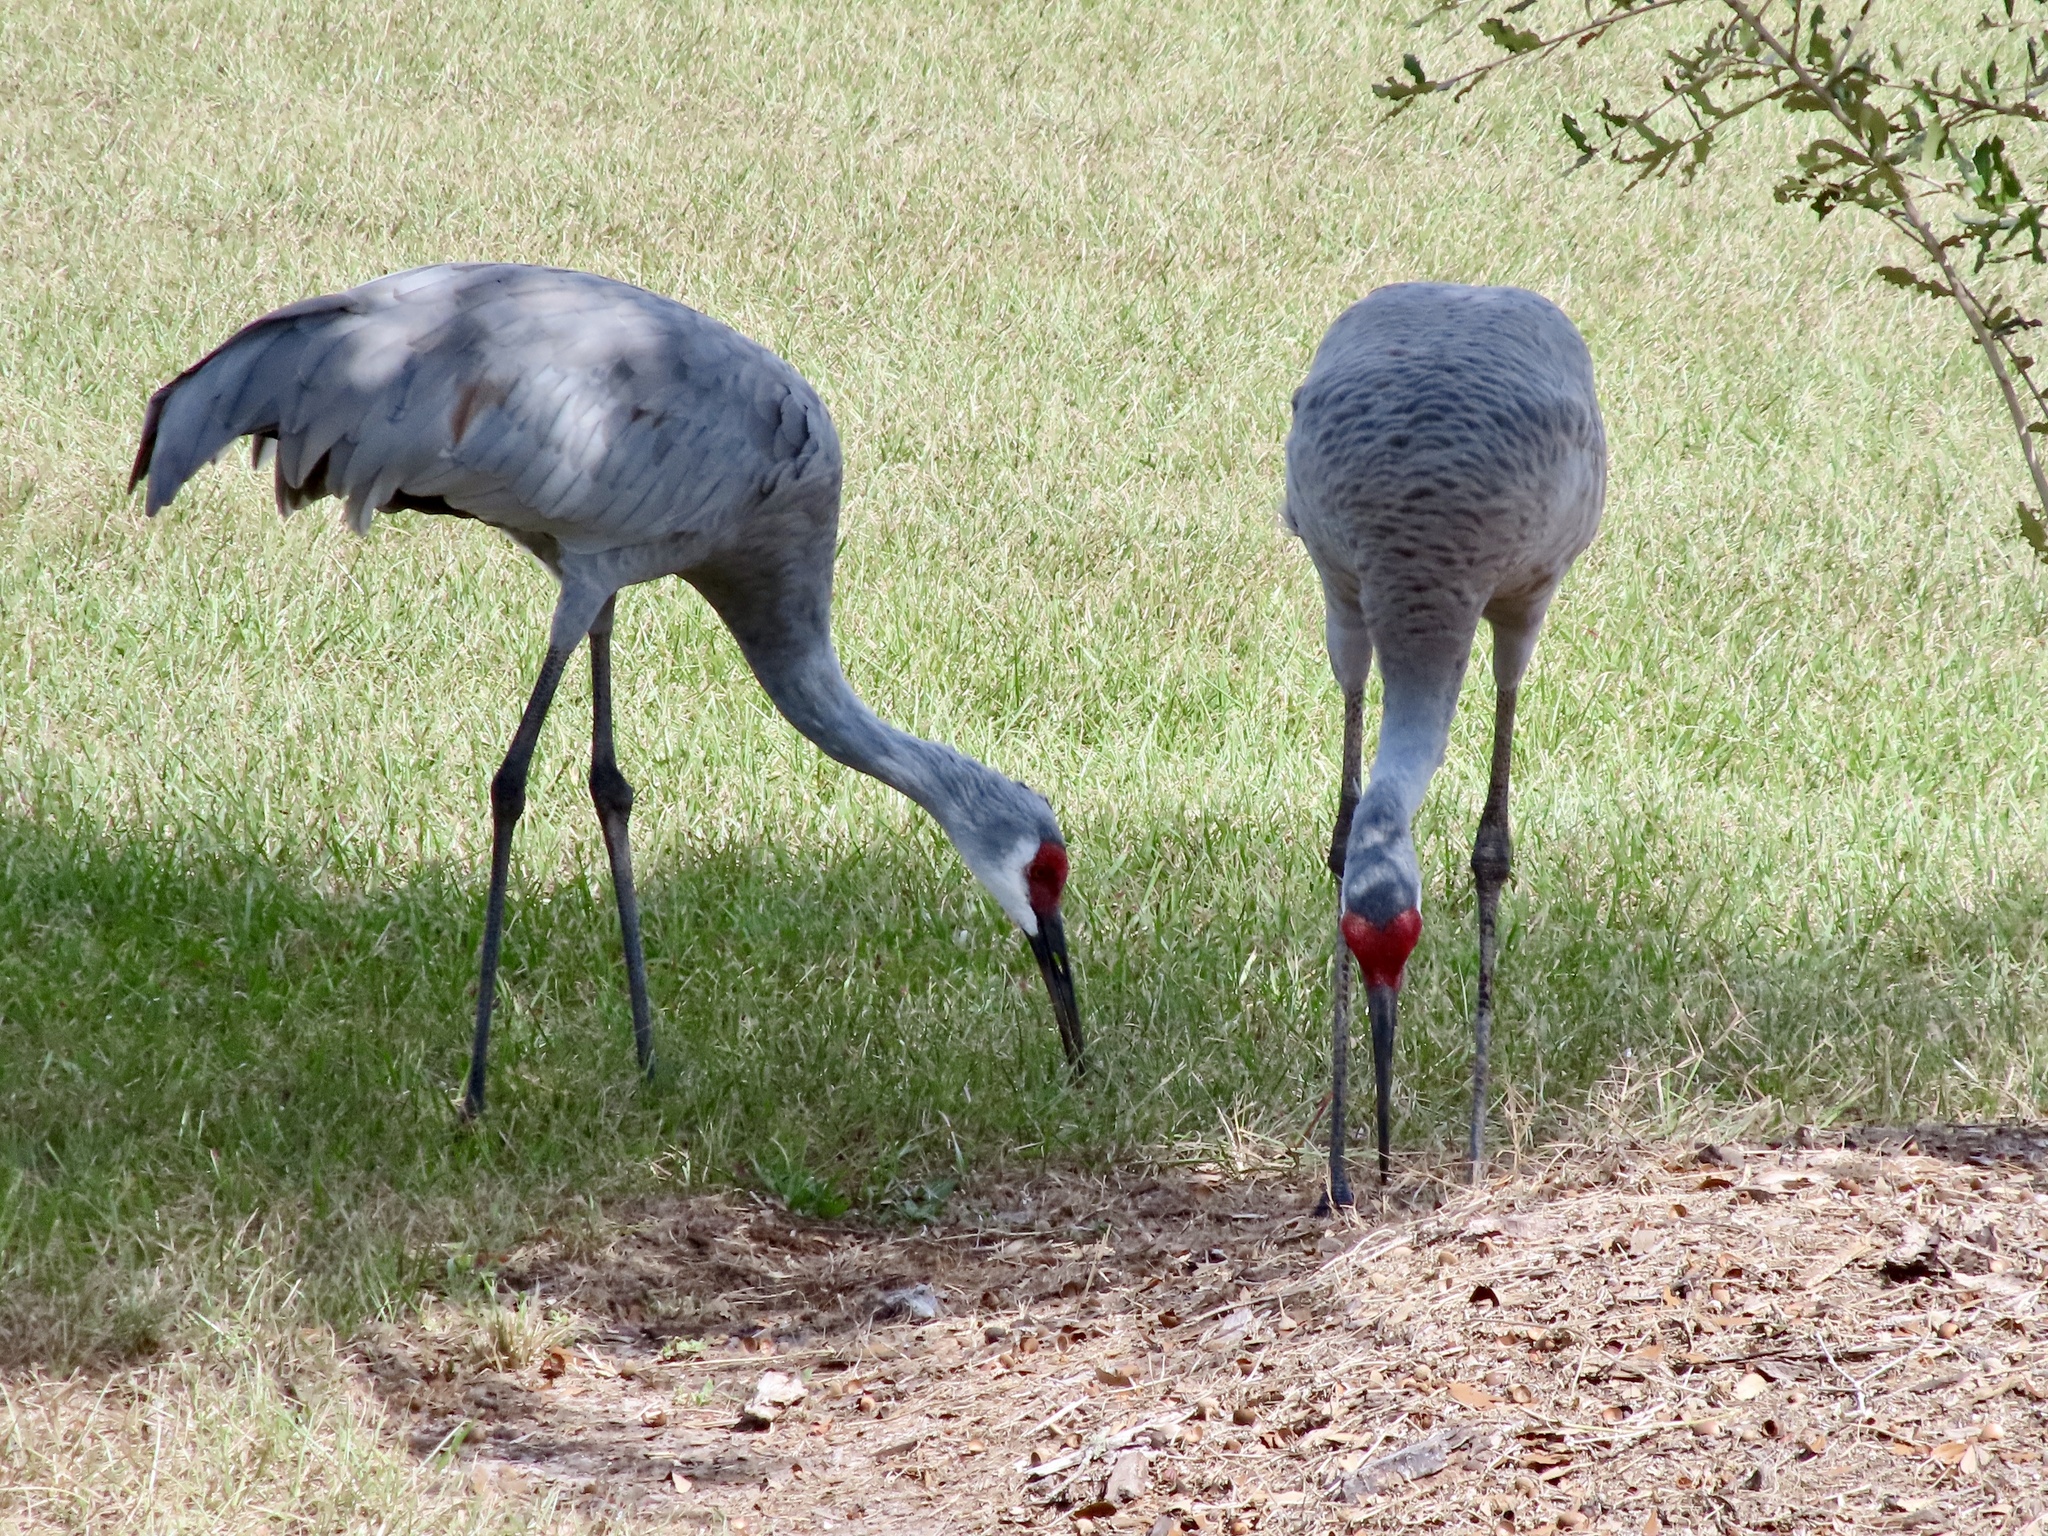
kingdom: Animalia
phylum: Chordata
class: Aves
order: Gruiformes
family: Gruidae
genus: Grus
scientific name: Grus canadensis
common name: Sandhill crane
